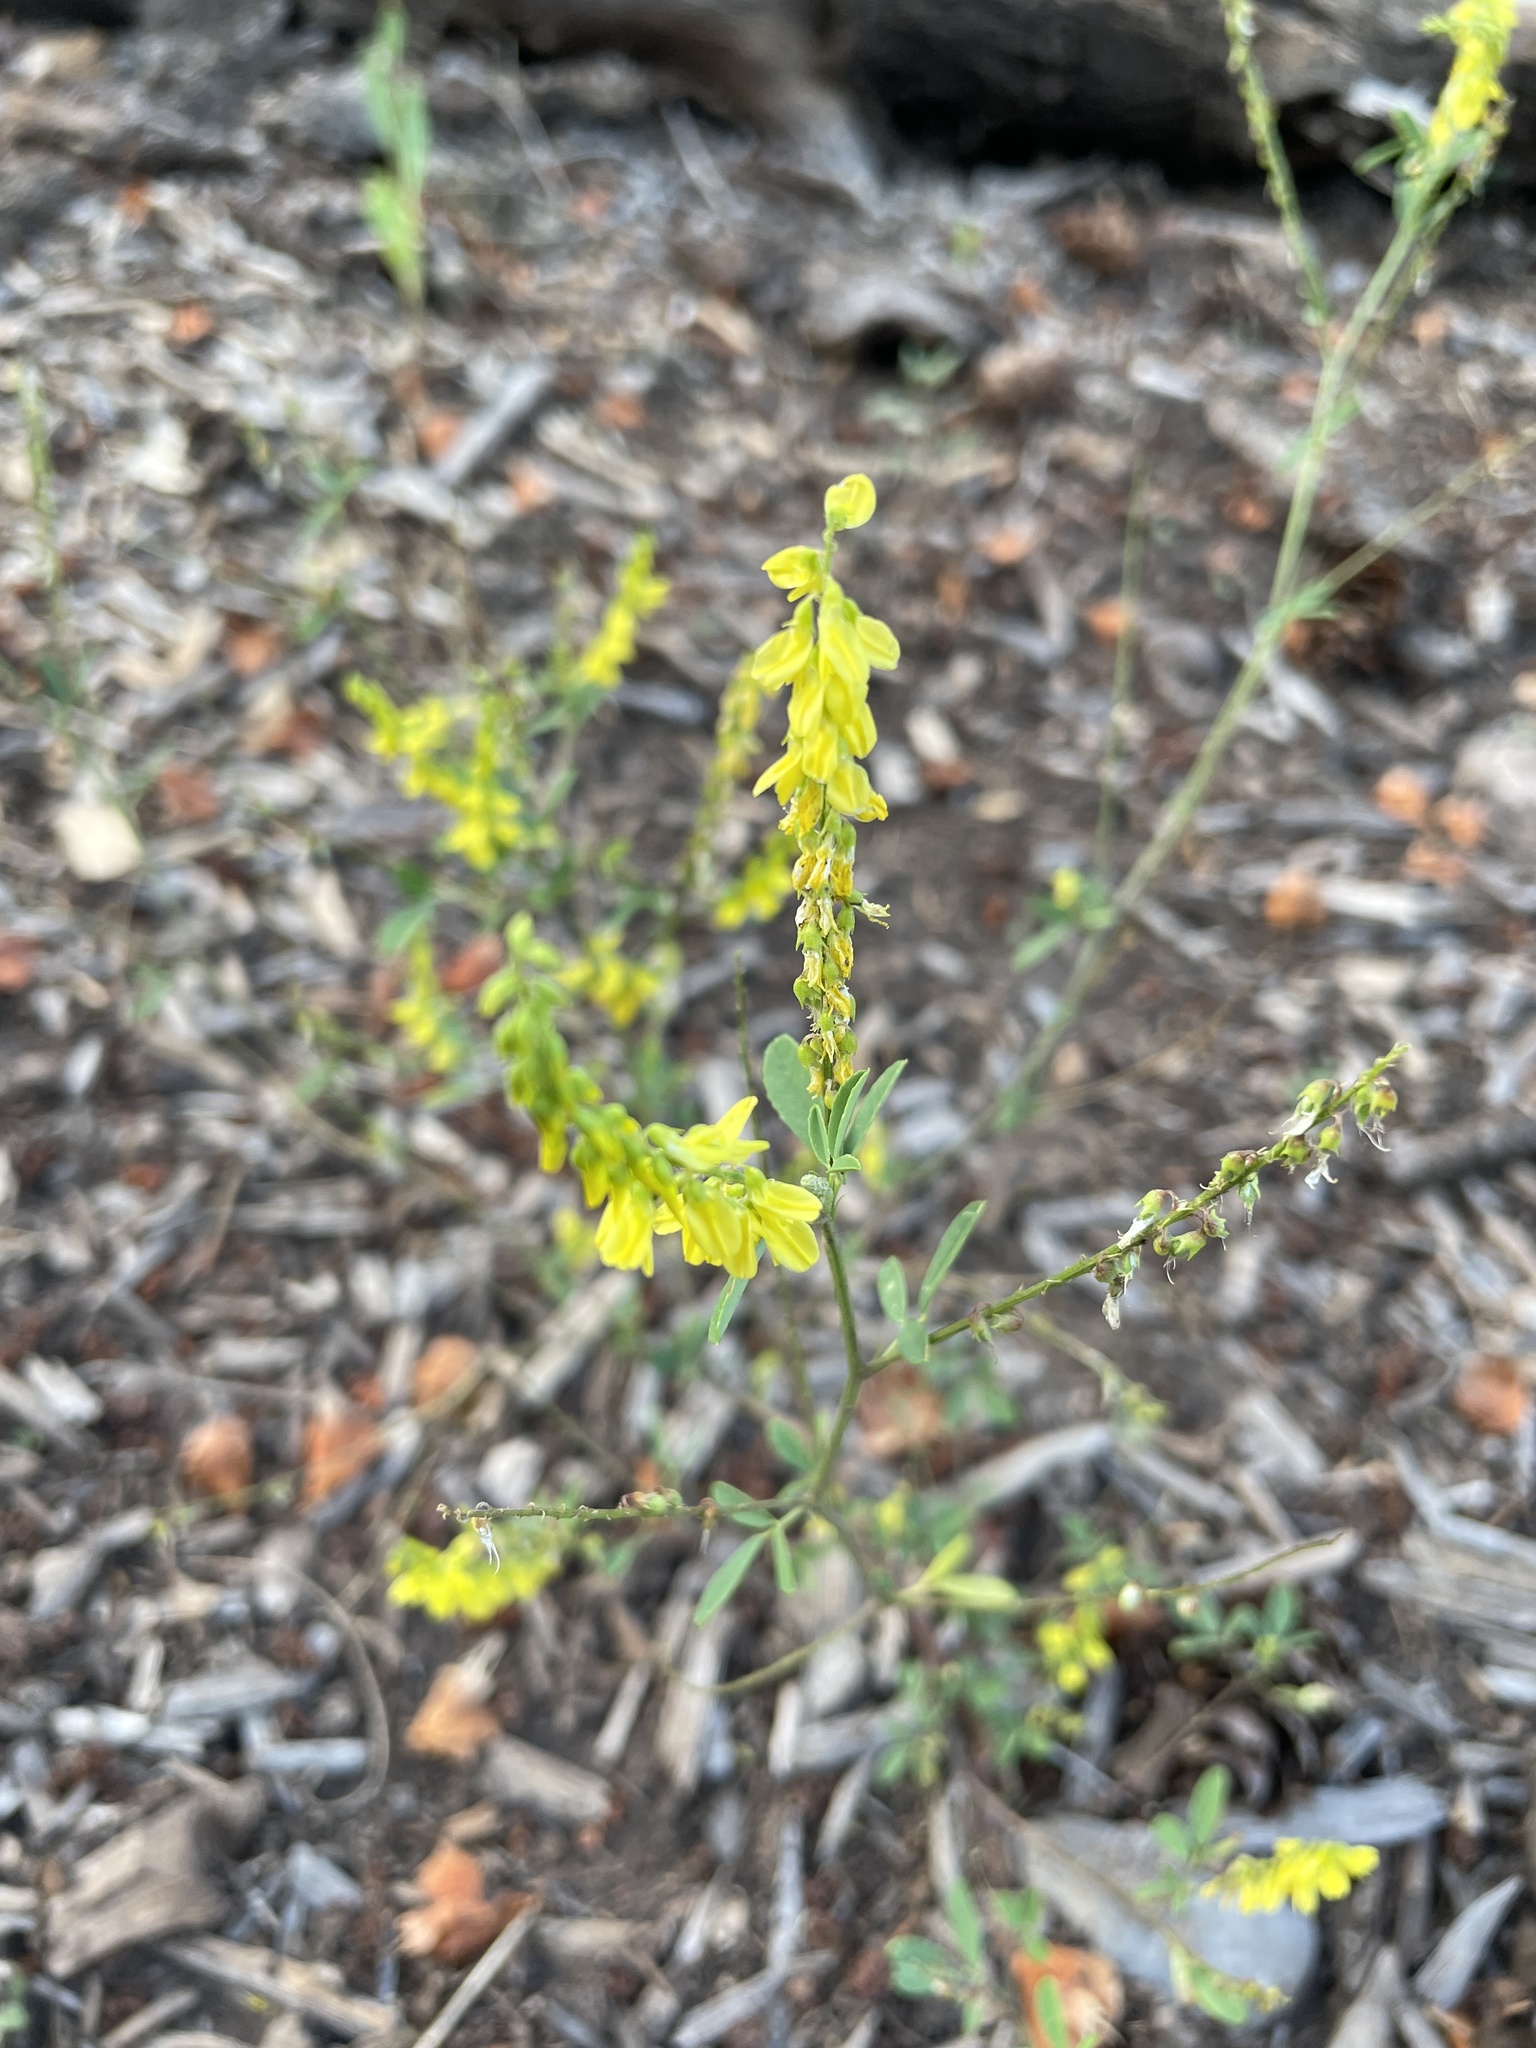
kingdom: Plantae
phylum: Tracheophyta
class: Magnoliopsida
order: Fabales
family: Fabaceae
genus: Melilotus
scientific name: Melilotus officinalis
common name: Sweetclover
